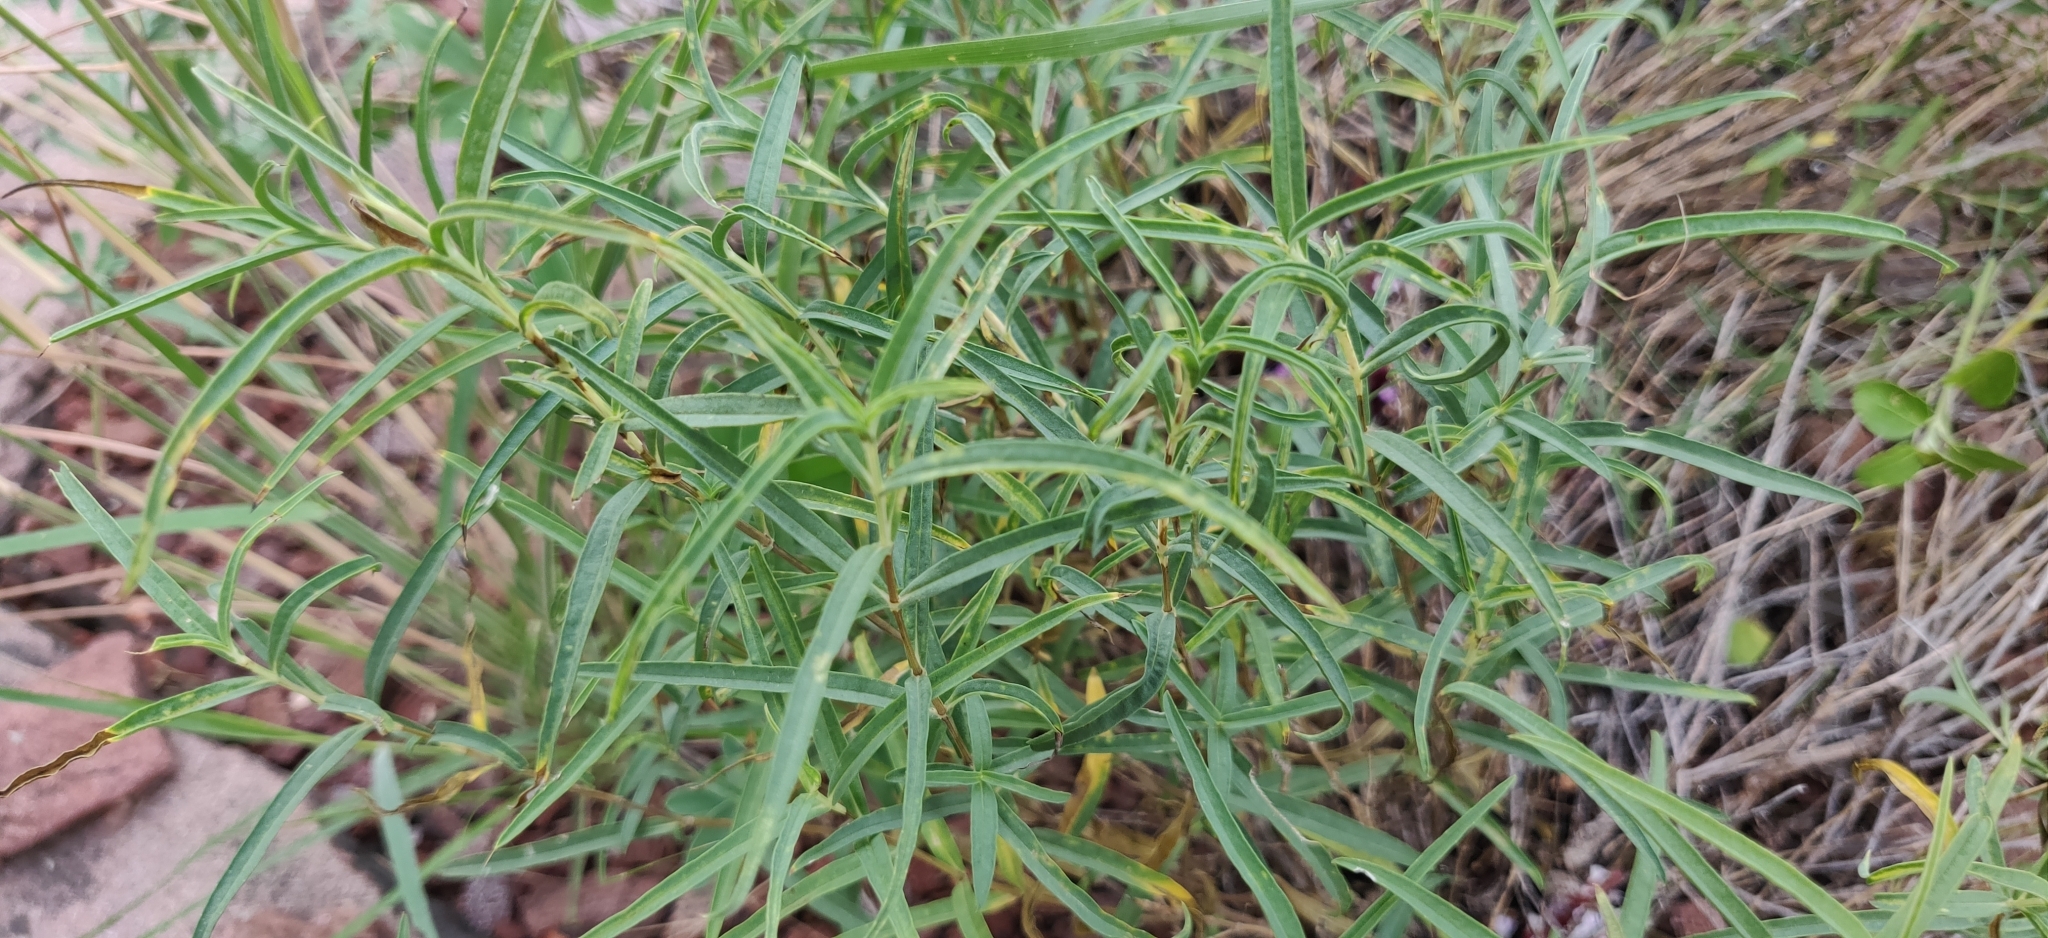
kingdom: Plantae
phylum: Tracheophyta
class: Magnoliopsida
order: Lamiales
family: Acanthaceae
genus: Lepidagathis
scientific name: Lepidagathis trinervis
